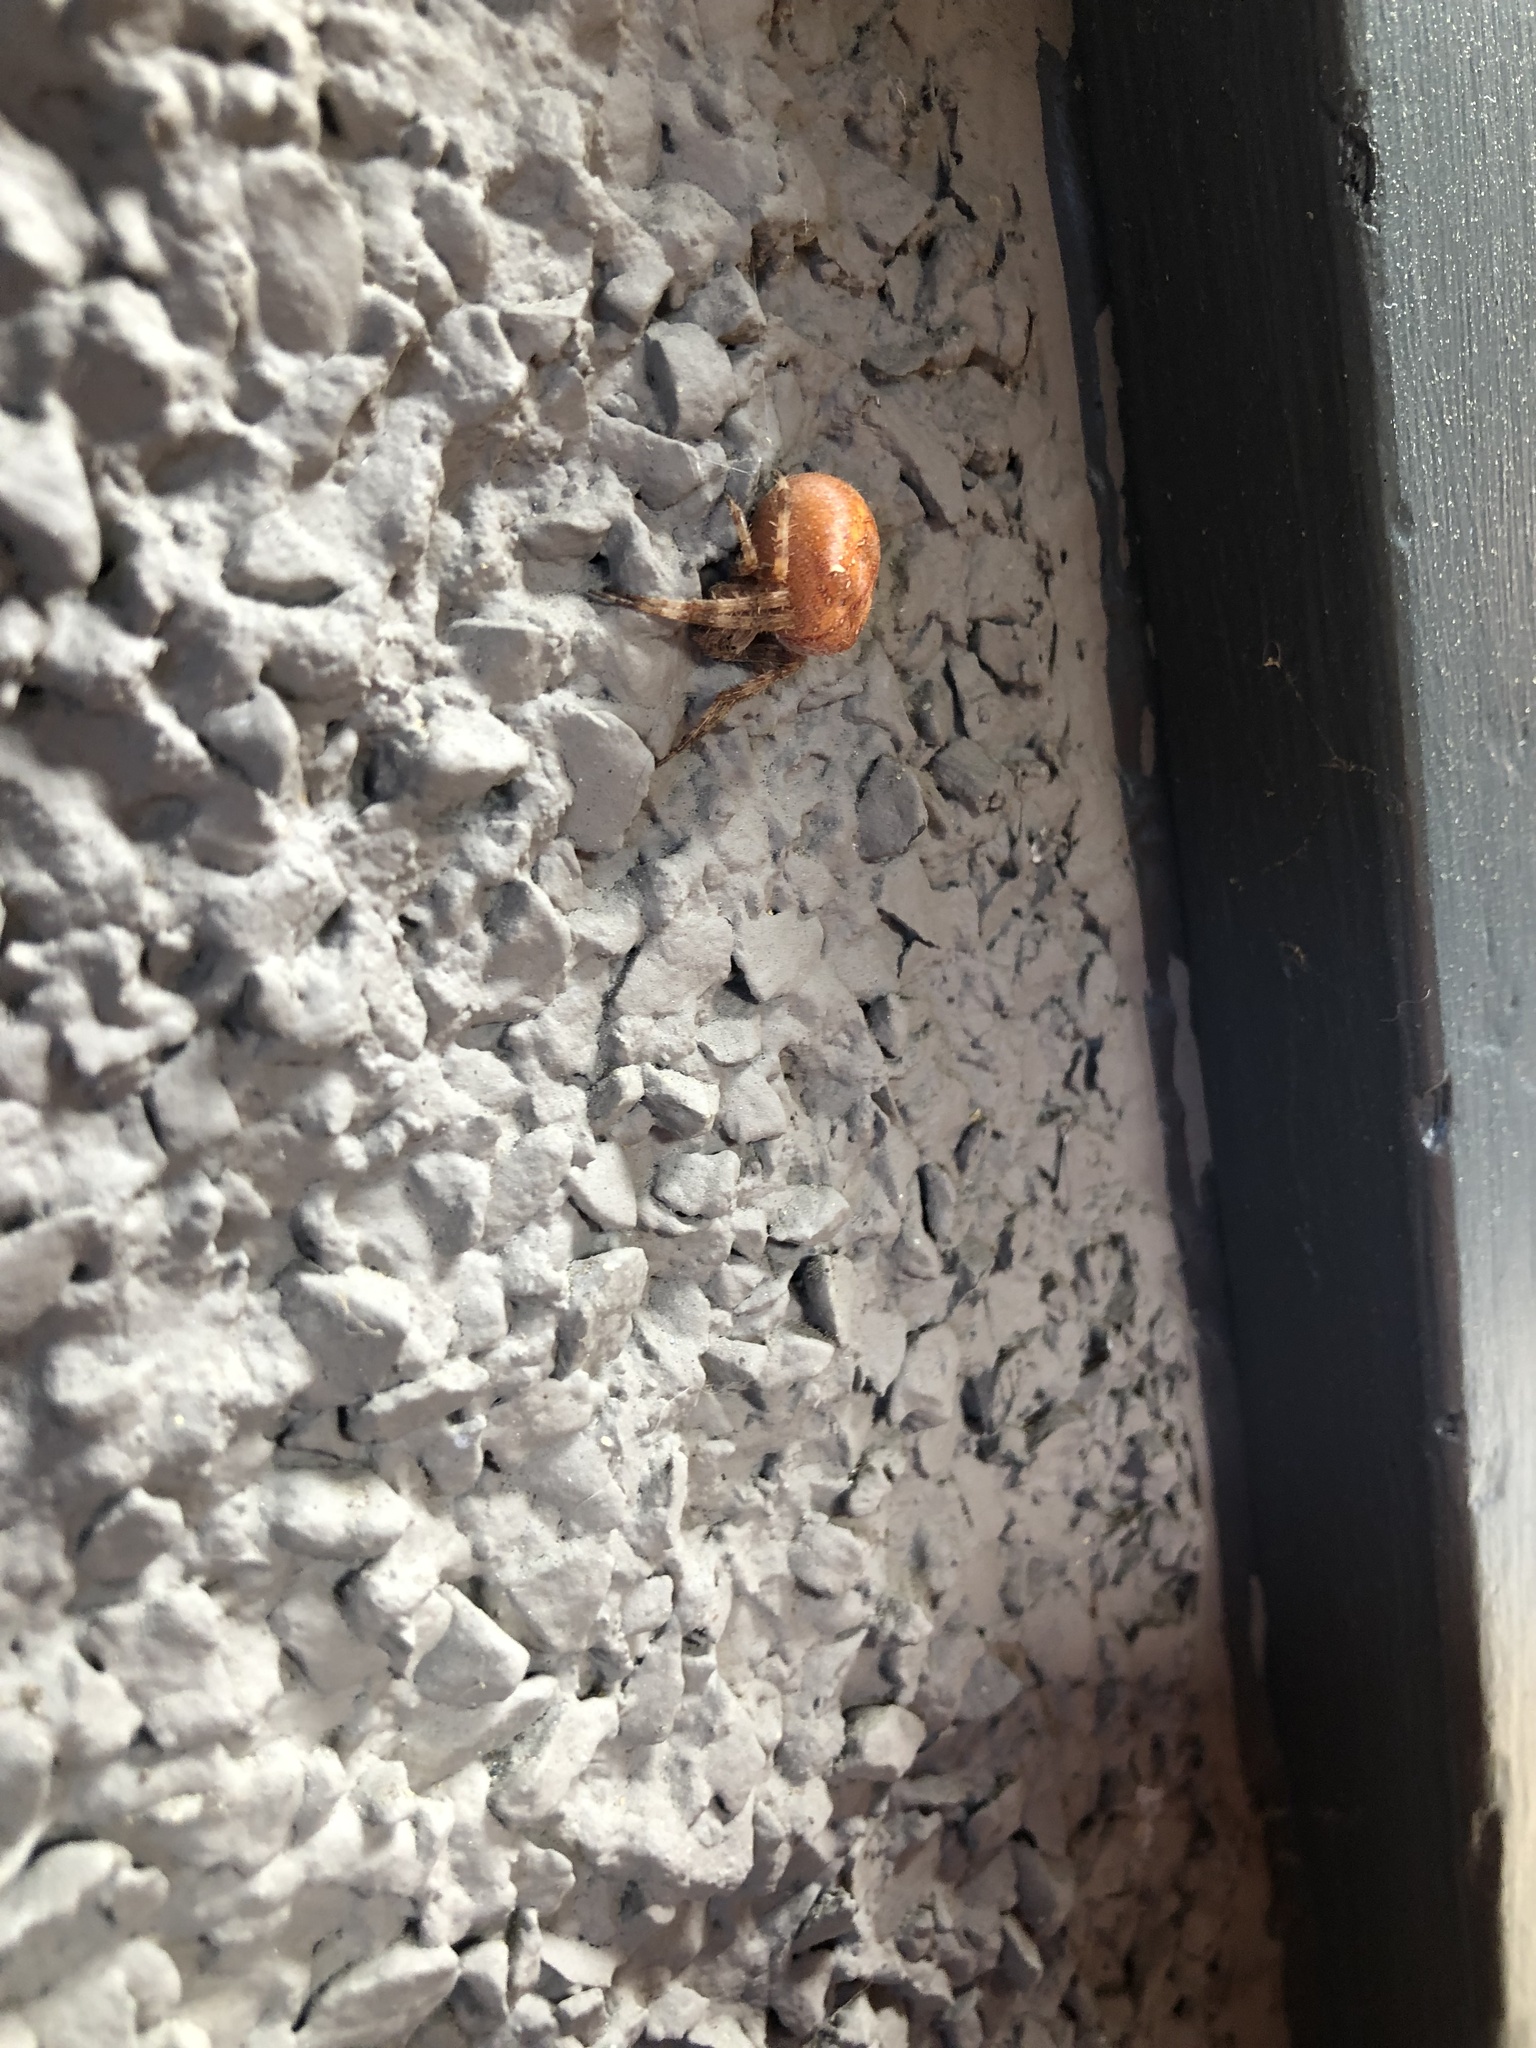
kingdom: Animalia
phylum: Arthropoda
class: Arachnida
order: Araneae
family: Araneidae
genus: Araneus
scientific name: Araneus diadematus
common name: Cross orbweaver
